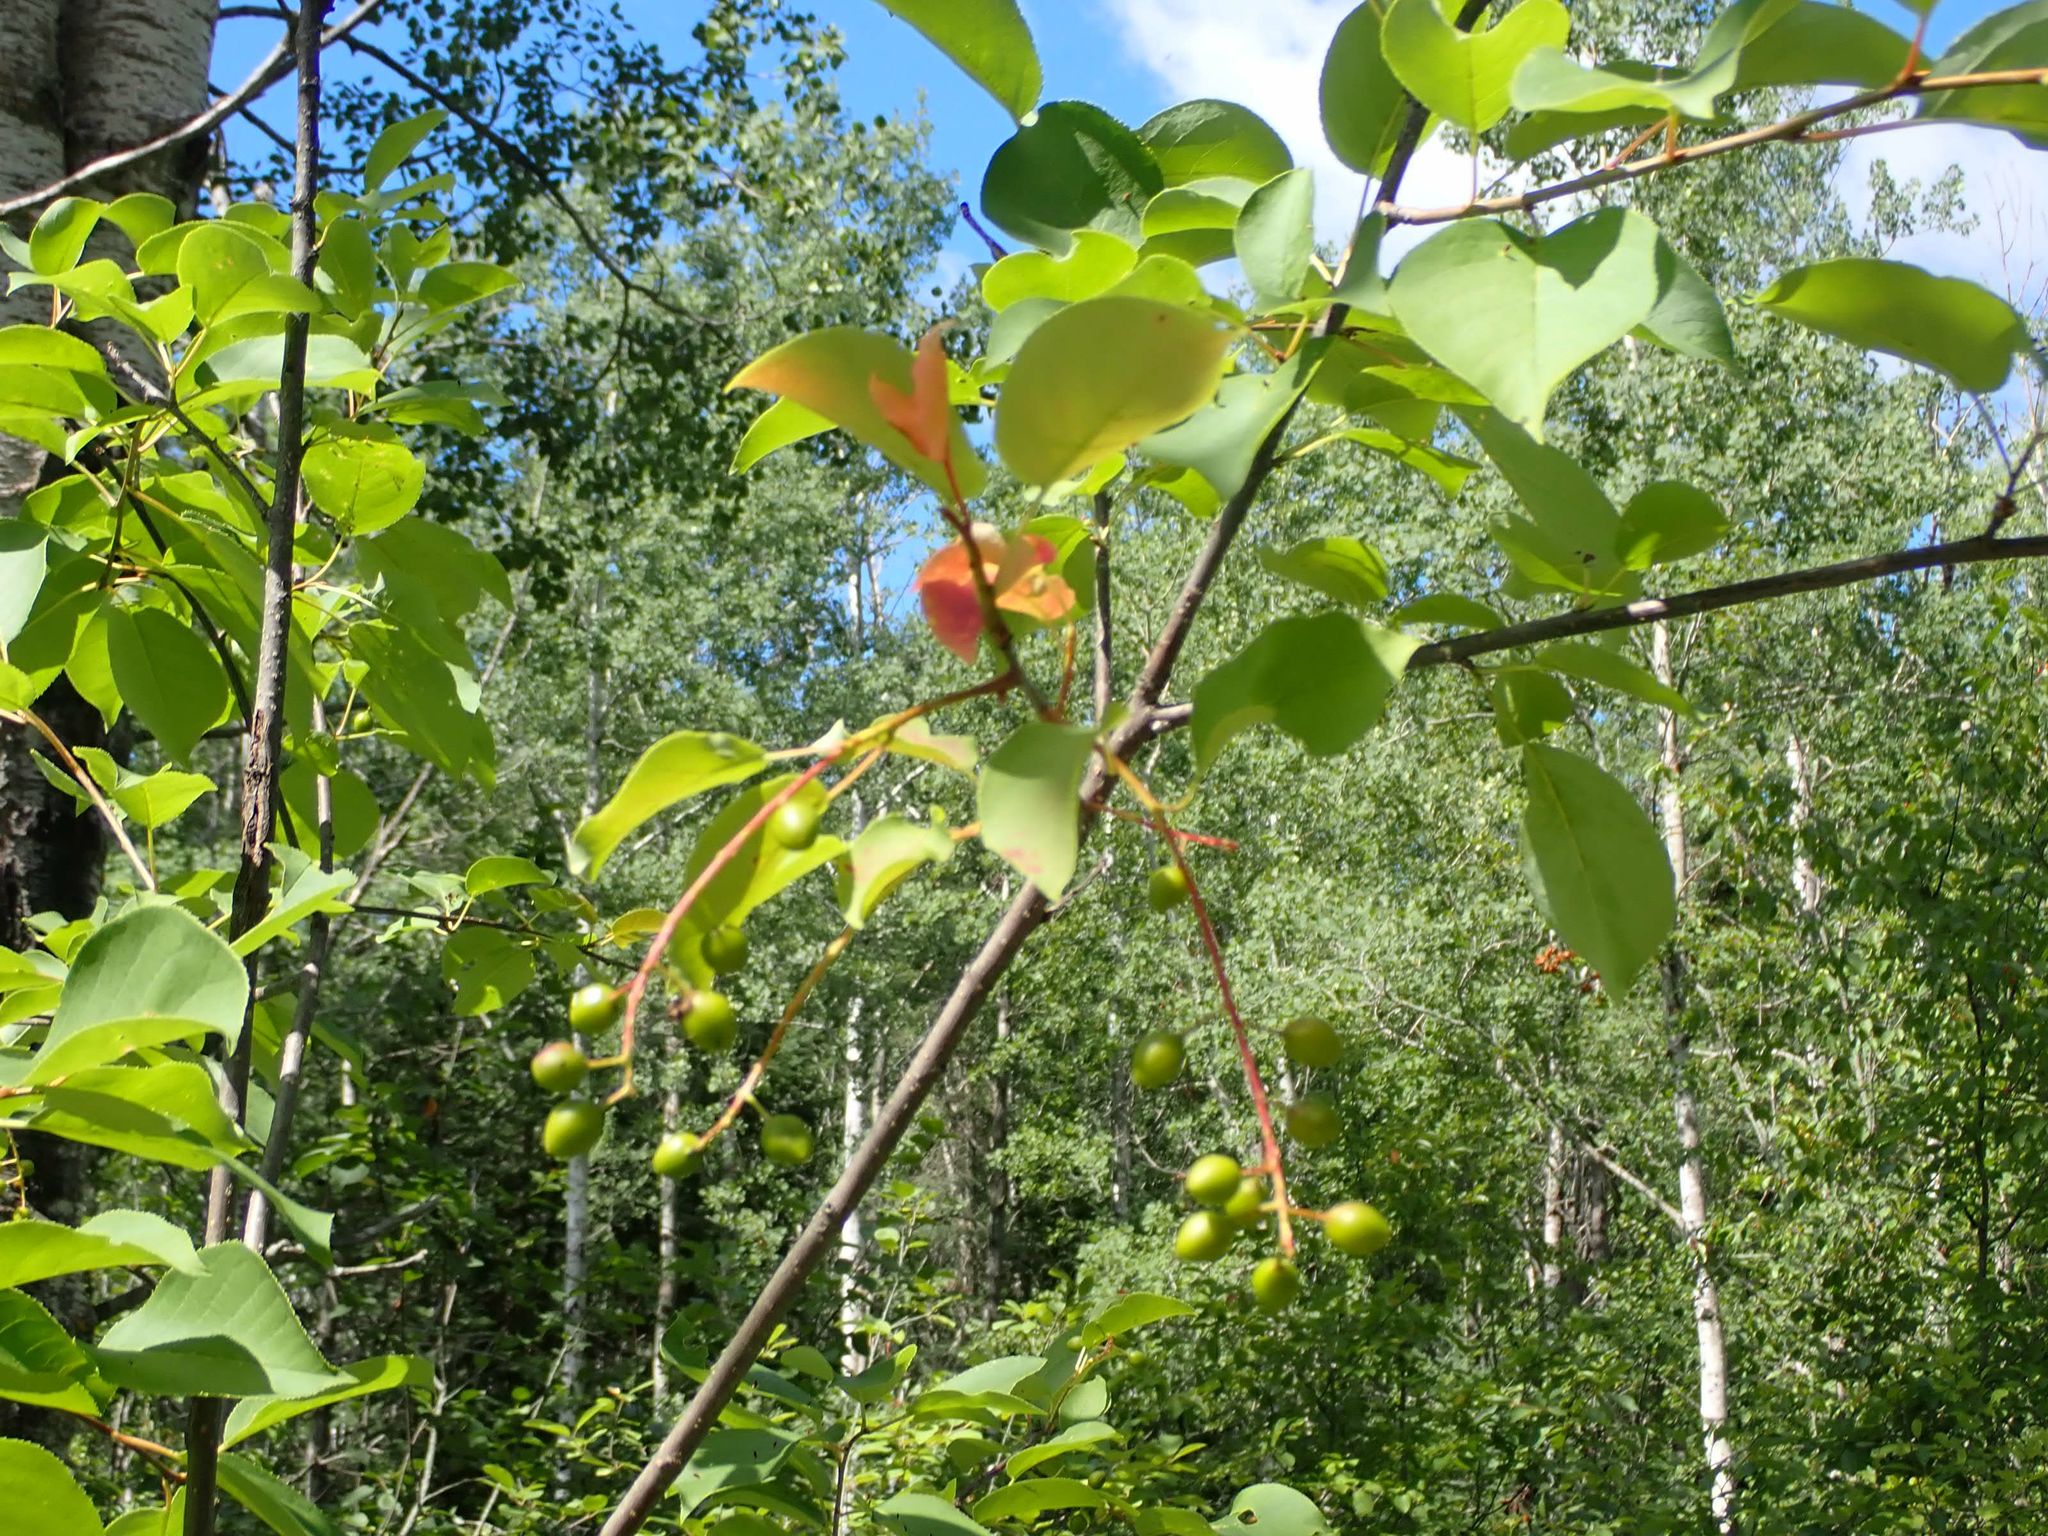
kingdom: Plantae
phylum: Tracheophyta
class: Magnoliopsida
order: Rosales
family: Rosaceae
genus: Prunus
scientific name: Prunus virginiana
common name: Chokecherry
